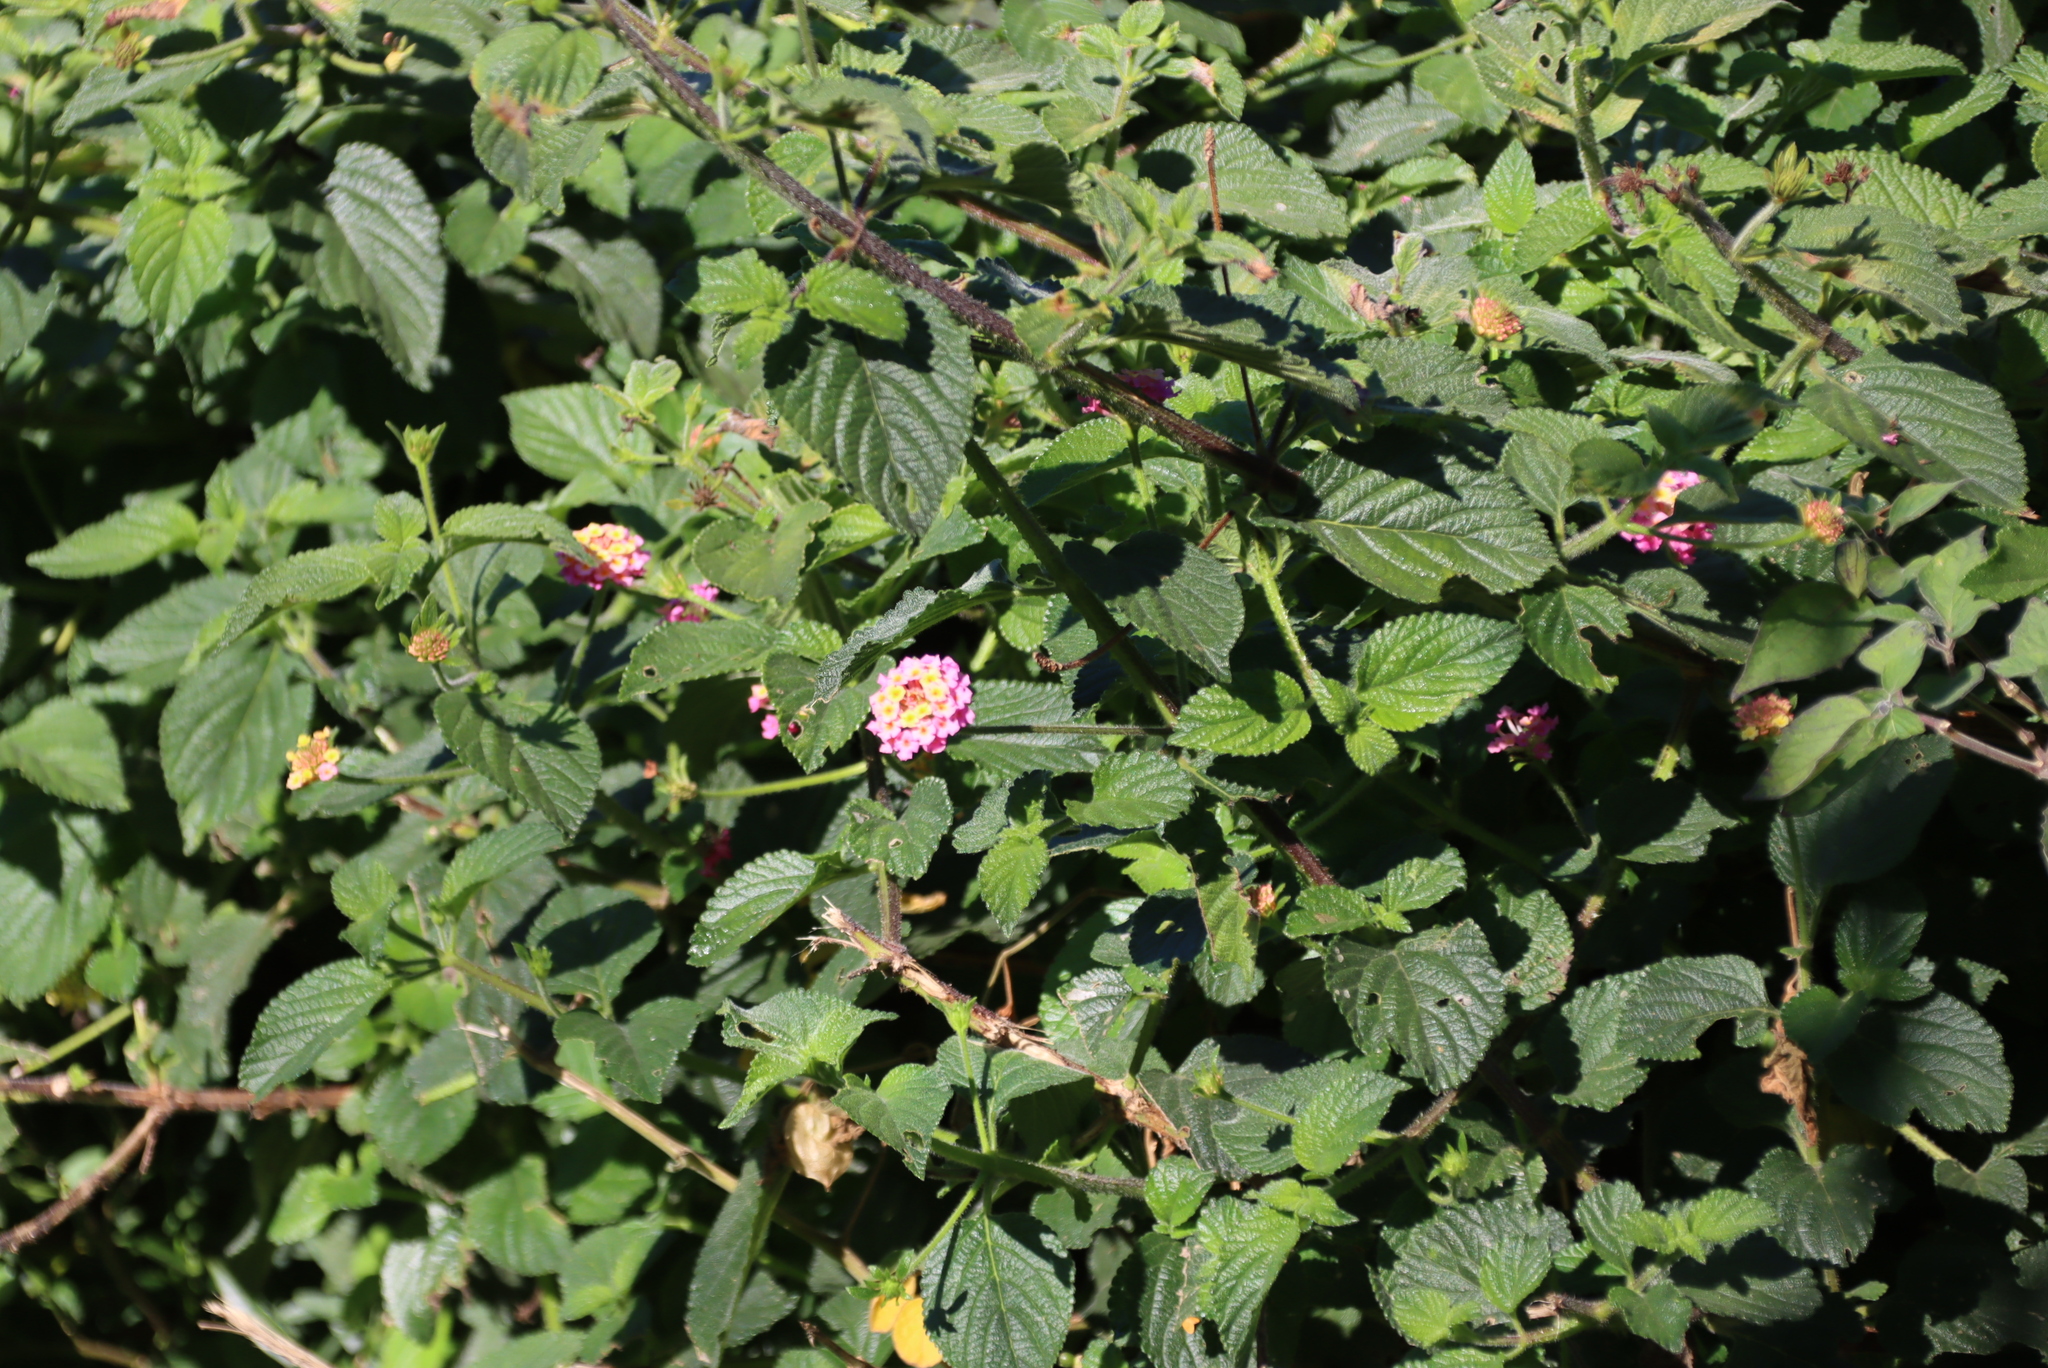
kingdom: Plantae
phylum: Tracheophyta
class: Magnoliopsida
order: Lamiales
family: Verbenaceae
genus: Lantana
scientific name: Lantana camara
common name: Lantana
